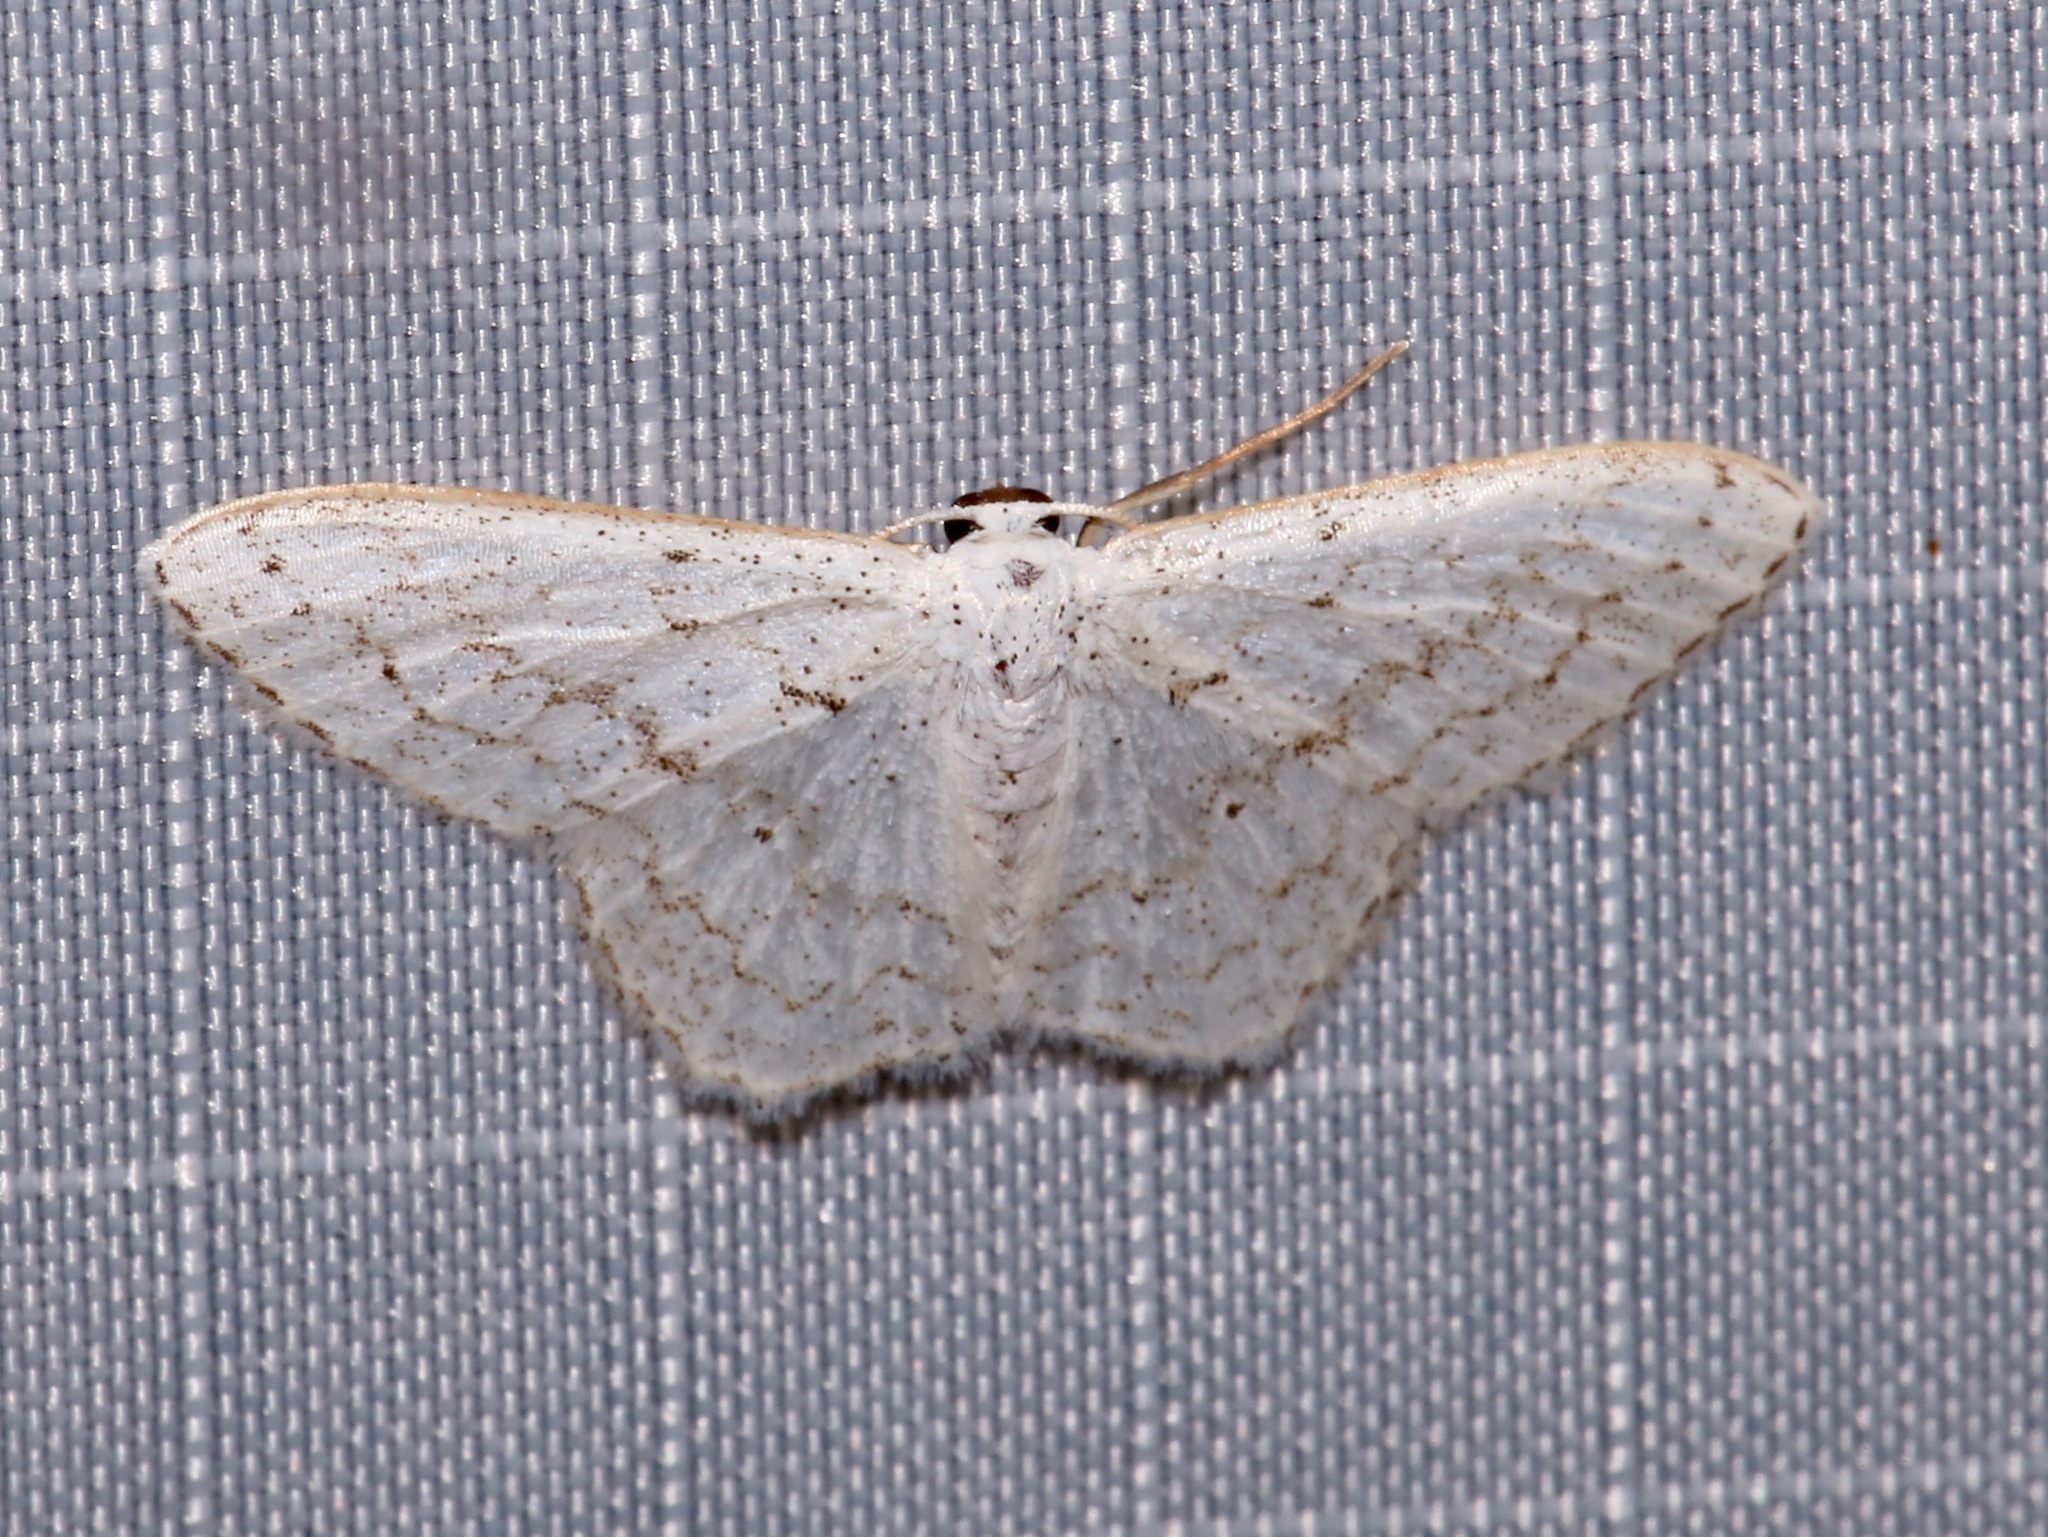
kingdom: Animalia
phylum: Arthropoda
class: Insecta
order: Lepidoptera
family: Geometridae
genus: Idaea
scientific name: Idaea tacturata
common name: Dot-lined wave
